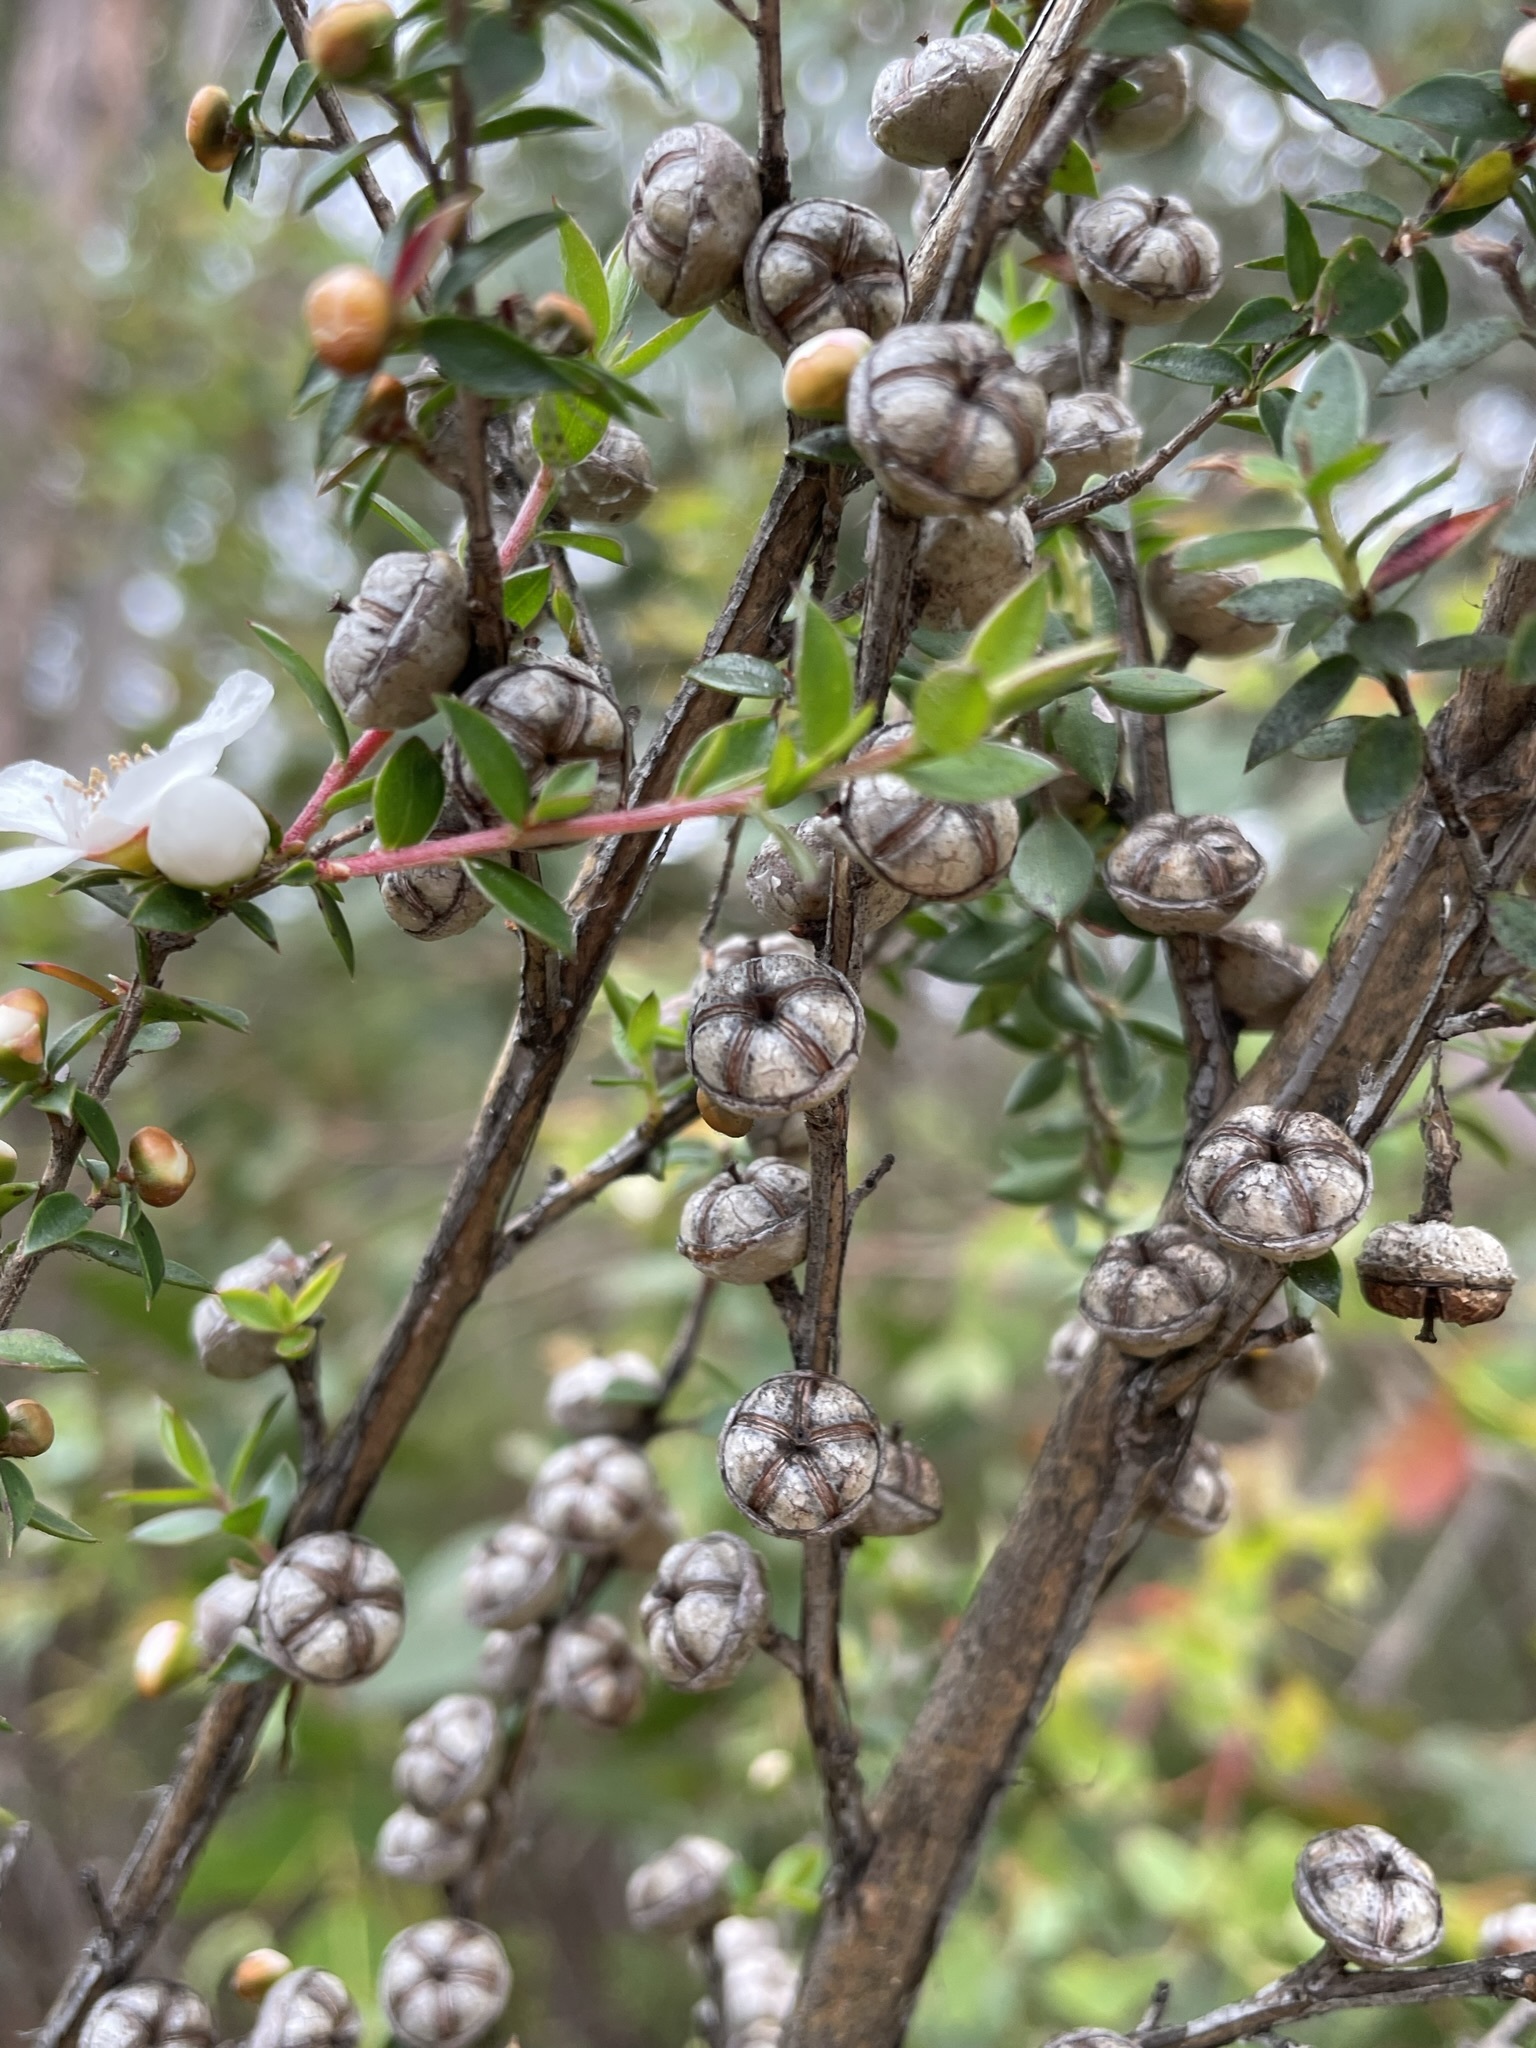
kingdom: Plantae
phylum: Tracheophyta
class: Magnoliopsida
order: Myrtales
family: Myrtaceae
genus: Leptospermum
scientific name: Leptospermum scoparium
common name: Broom tea-tree
